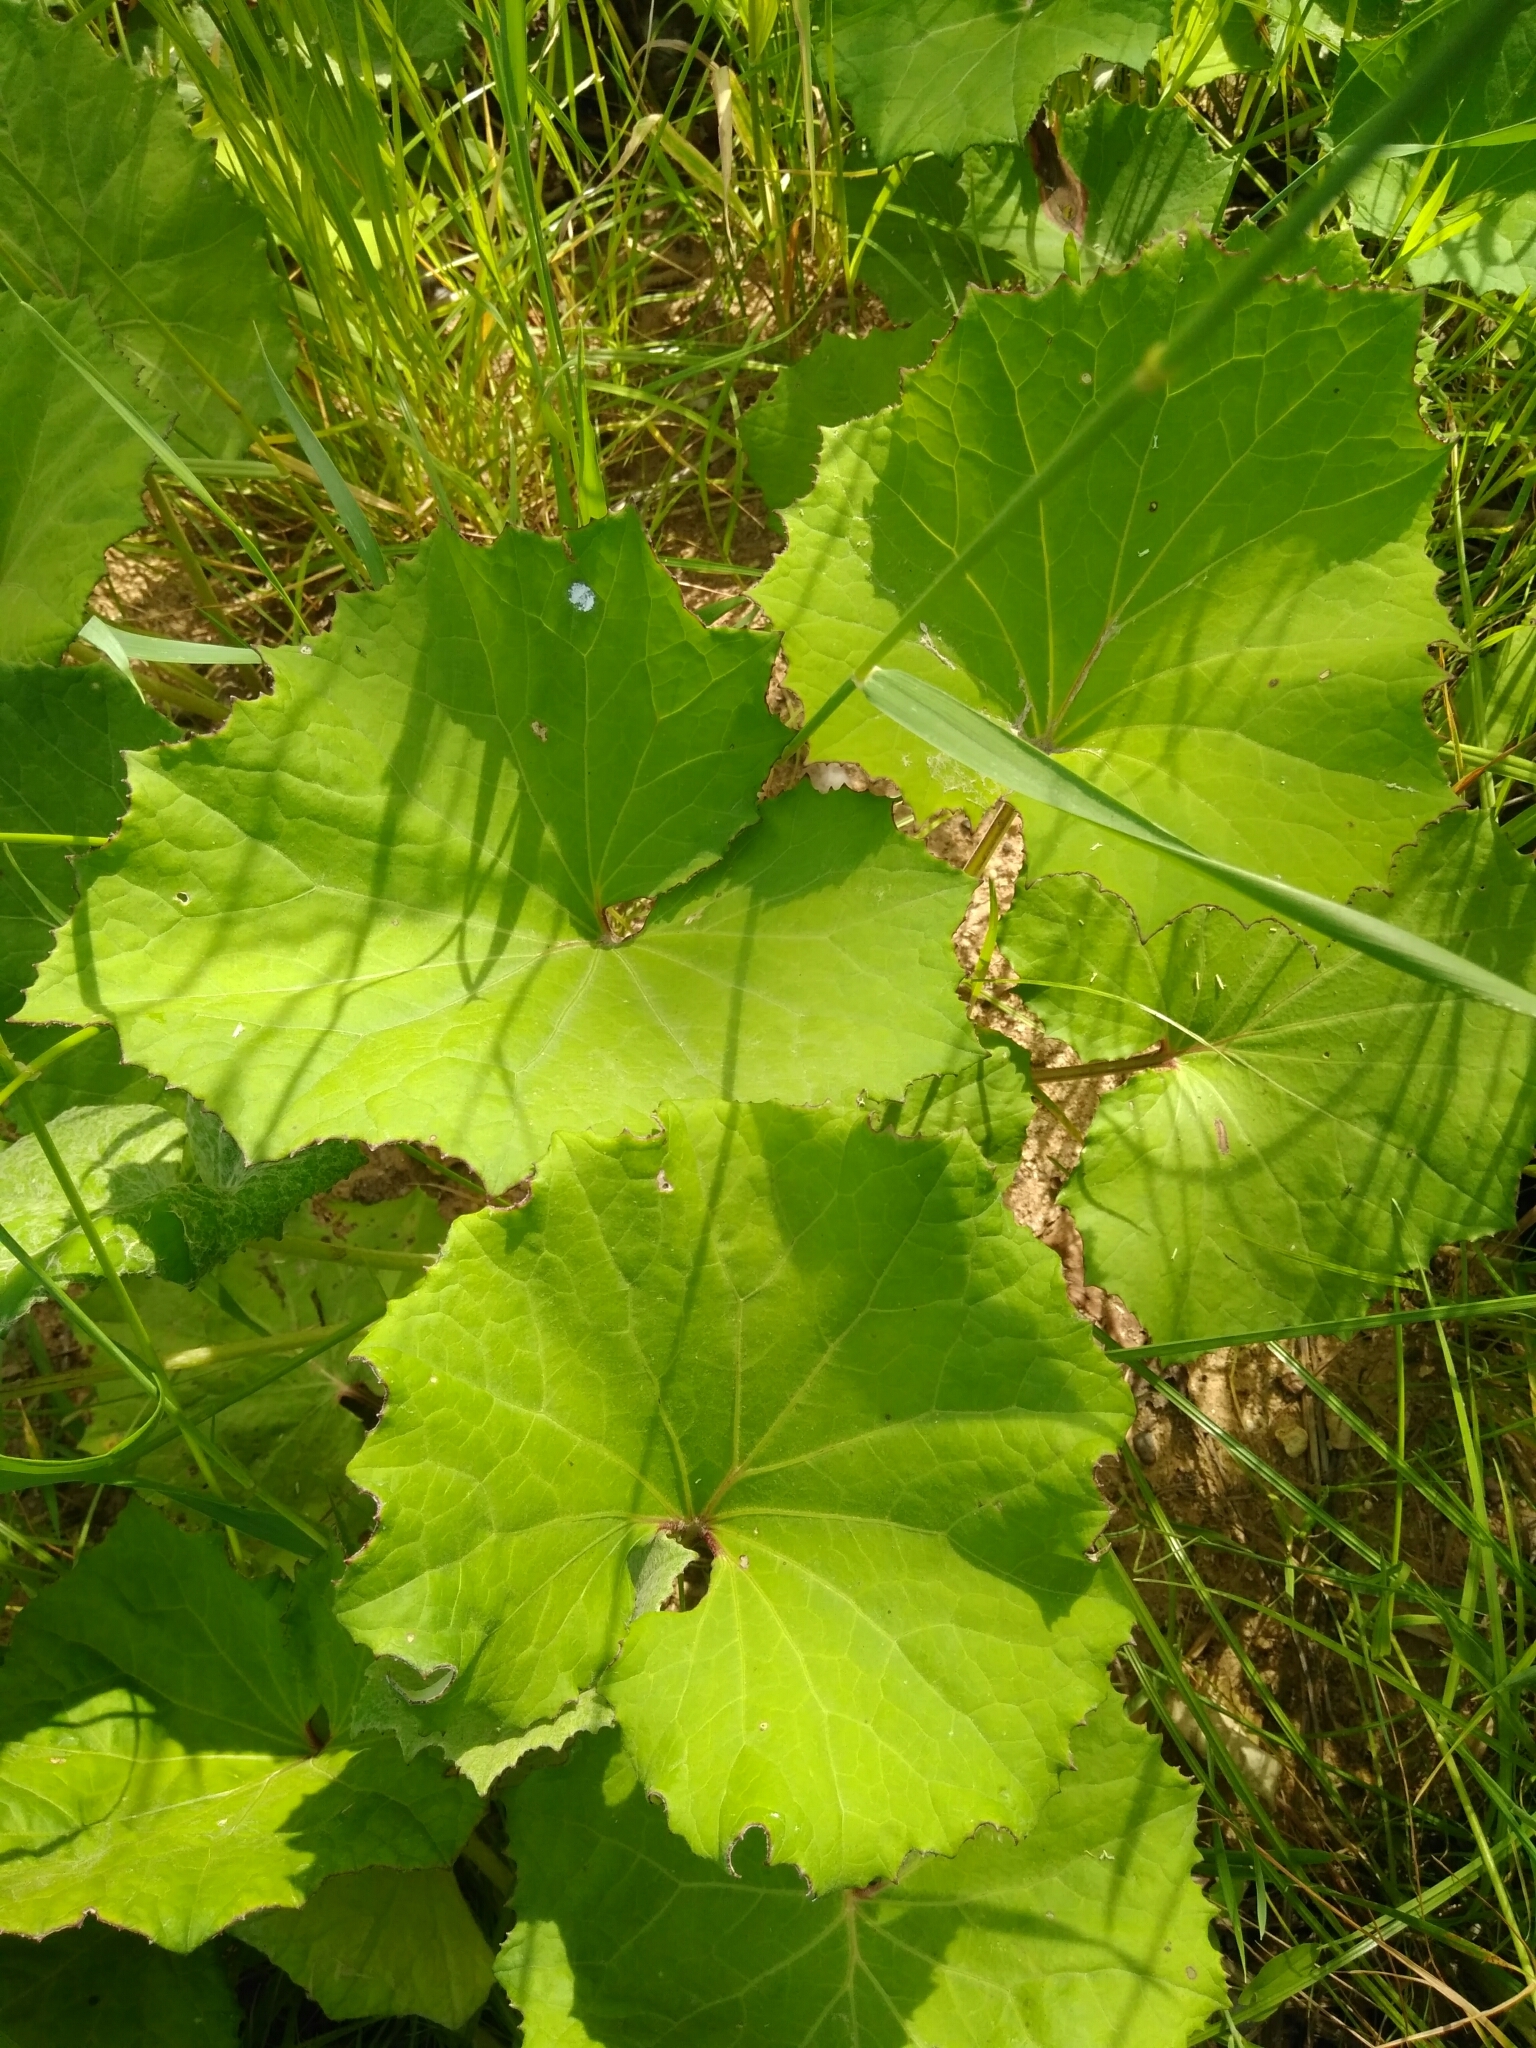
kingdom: Plantae
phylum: Tracheophyta
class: Magnoliopsida
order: Asterales
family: Asteraceae
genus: Tussilago
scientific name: Tussilago farfara
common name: Coltsfoot
